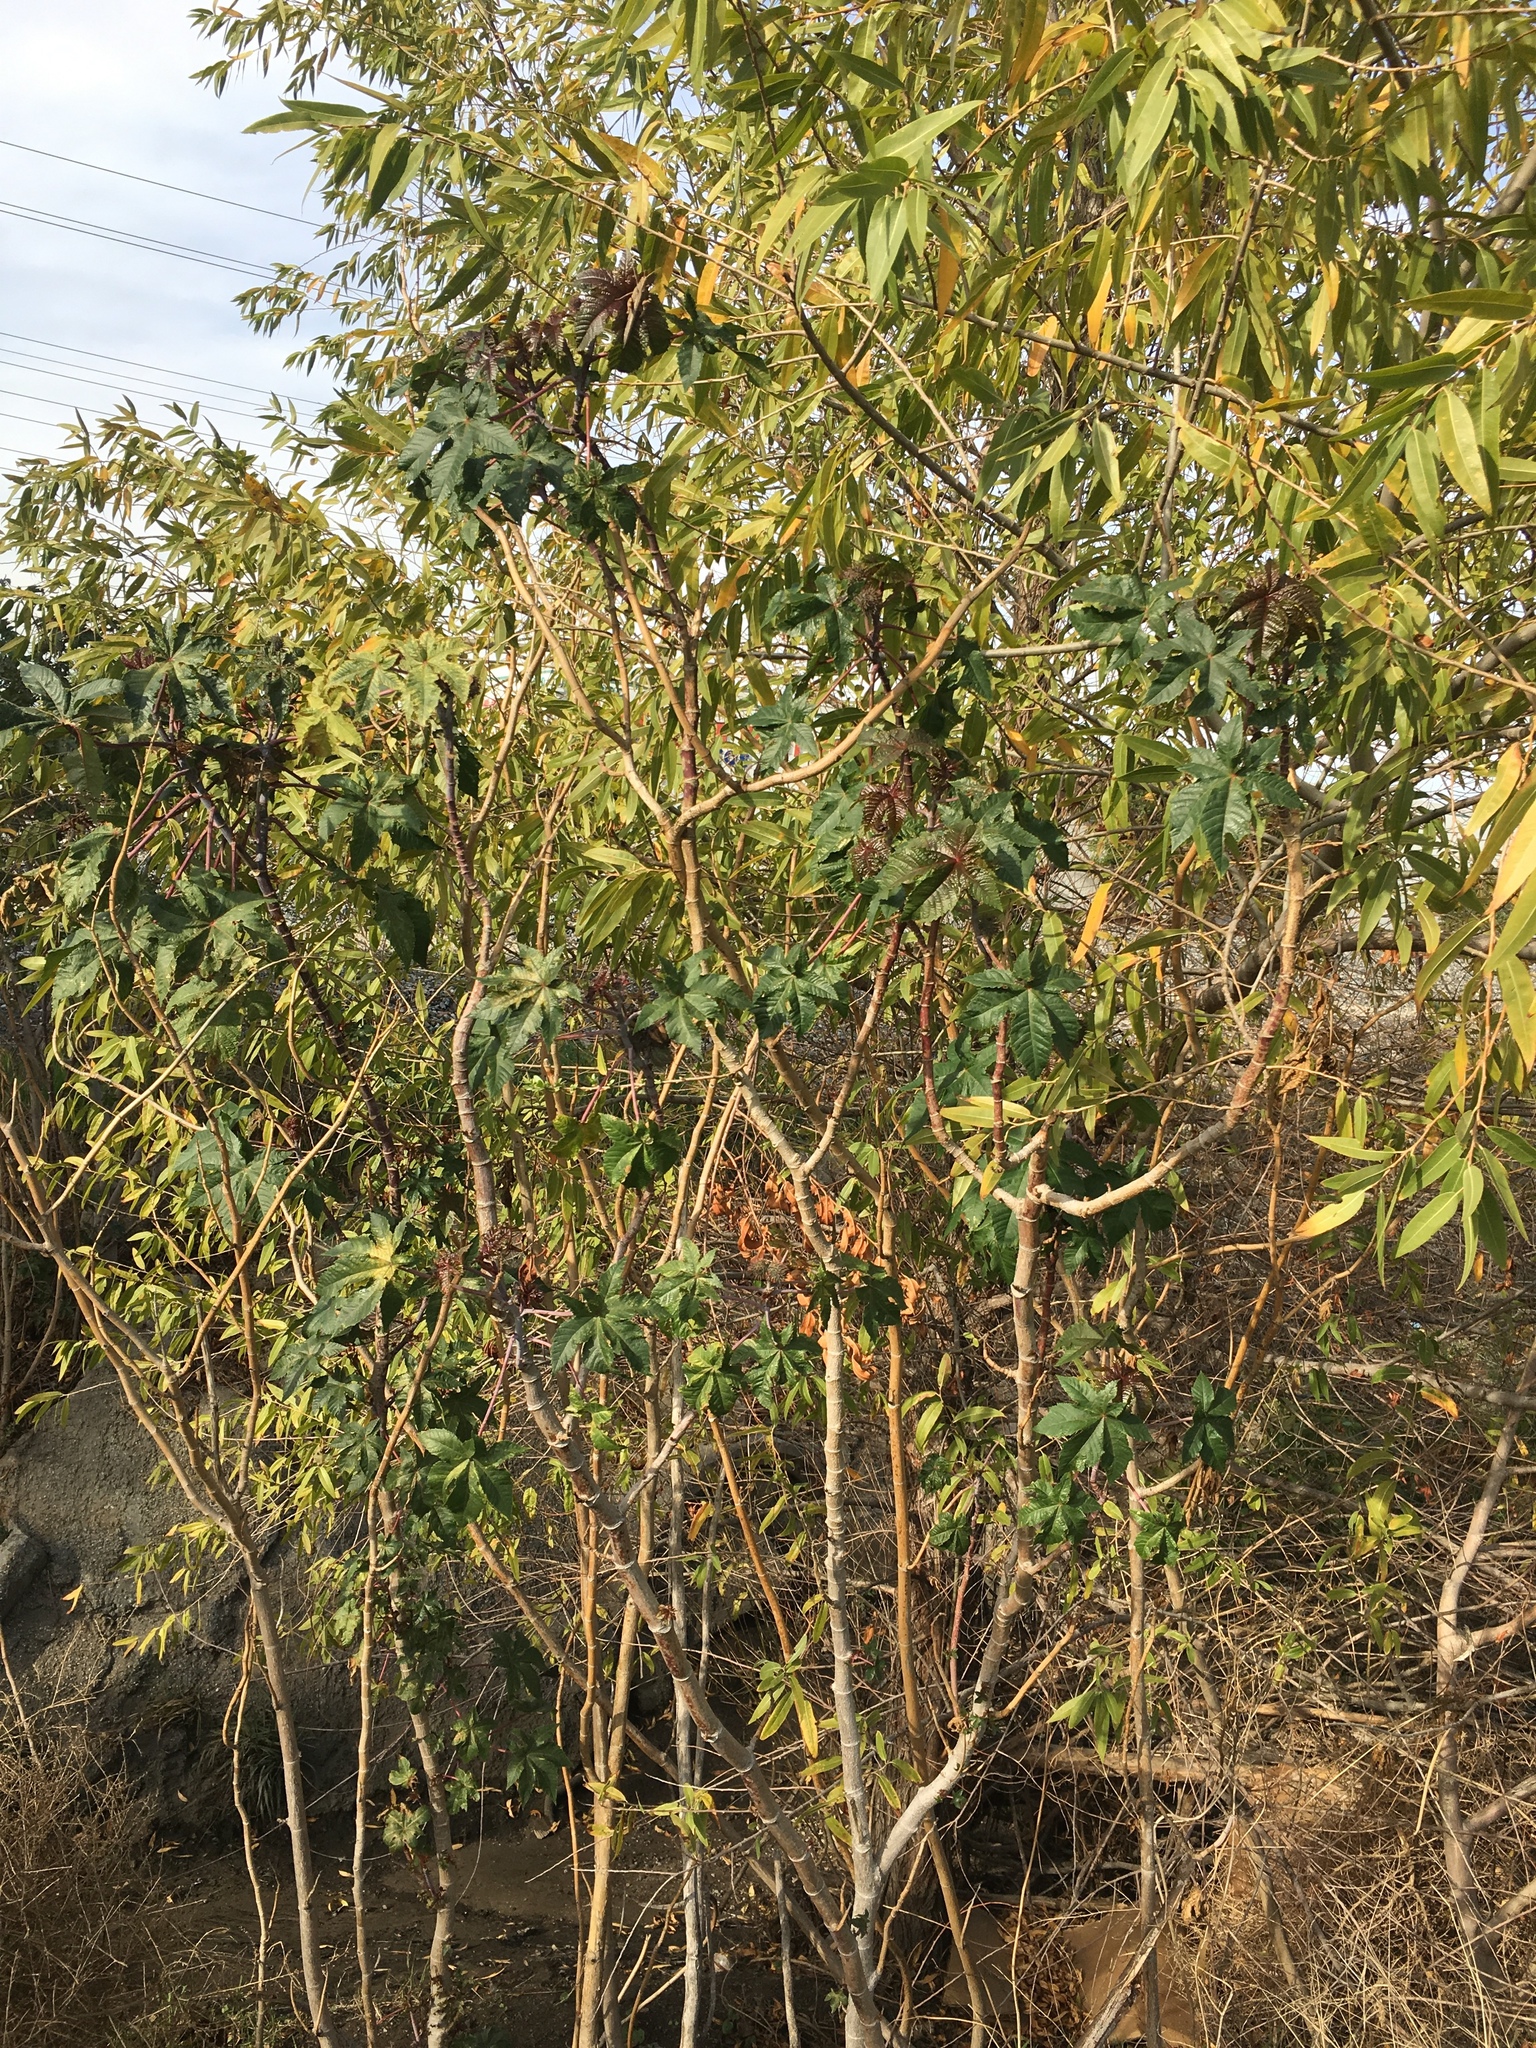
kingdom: Plantae
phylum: Tracheophyta
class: Magnoliopsida
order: Malpighiales
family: Euphorbiaceae
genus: Ricinus
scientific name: Ricinus communis
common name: Castor-oil-plant
